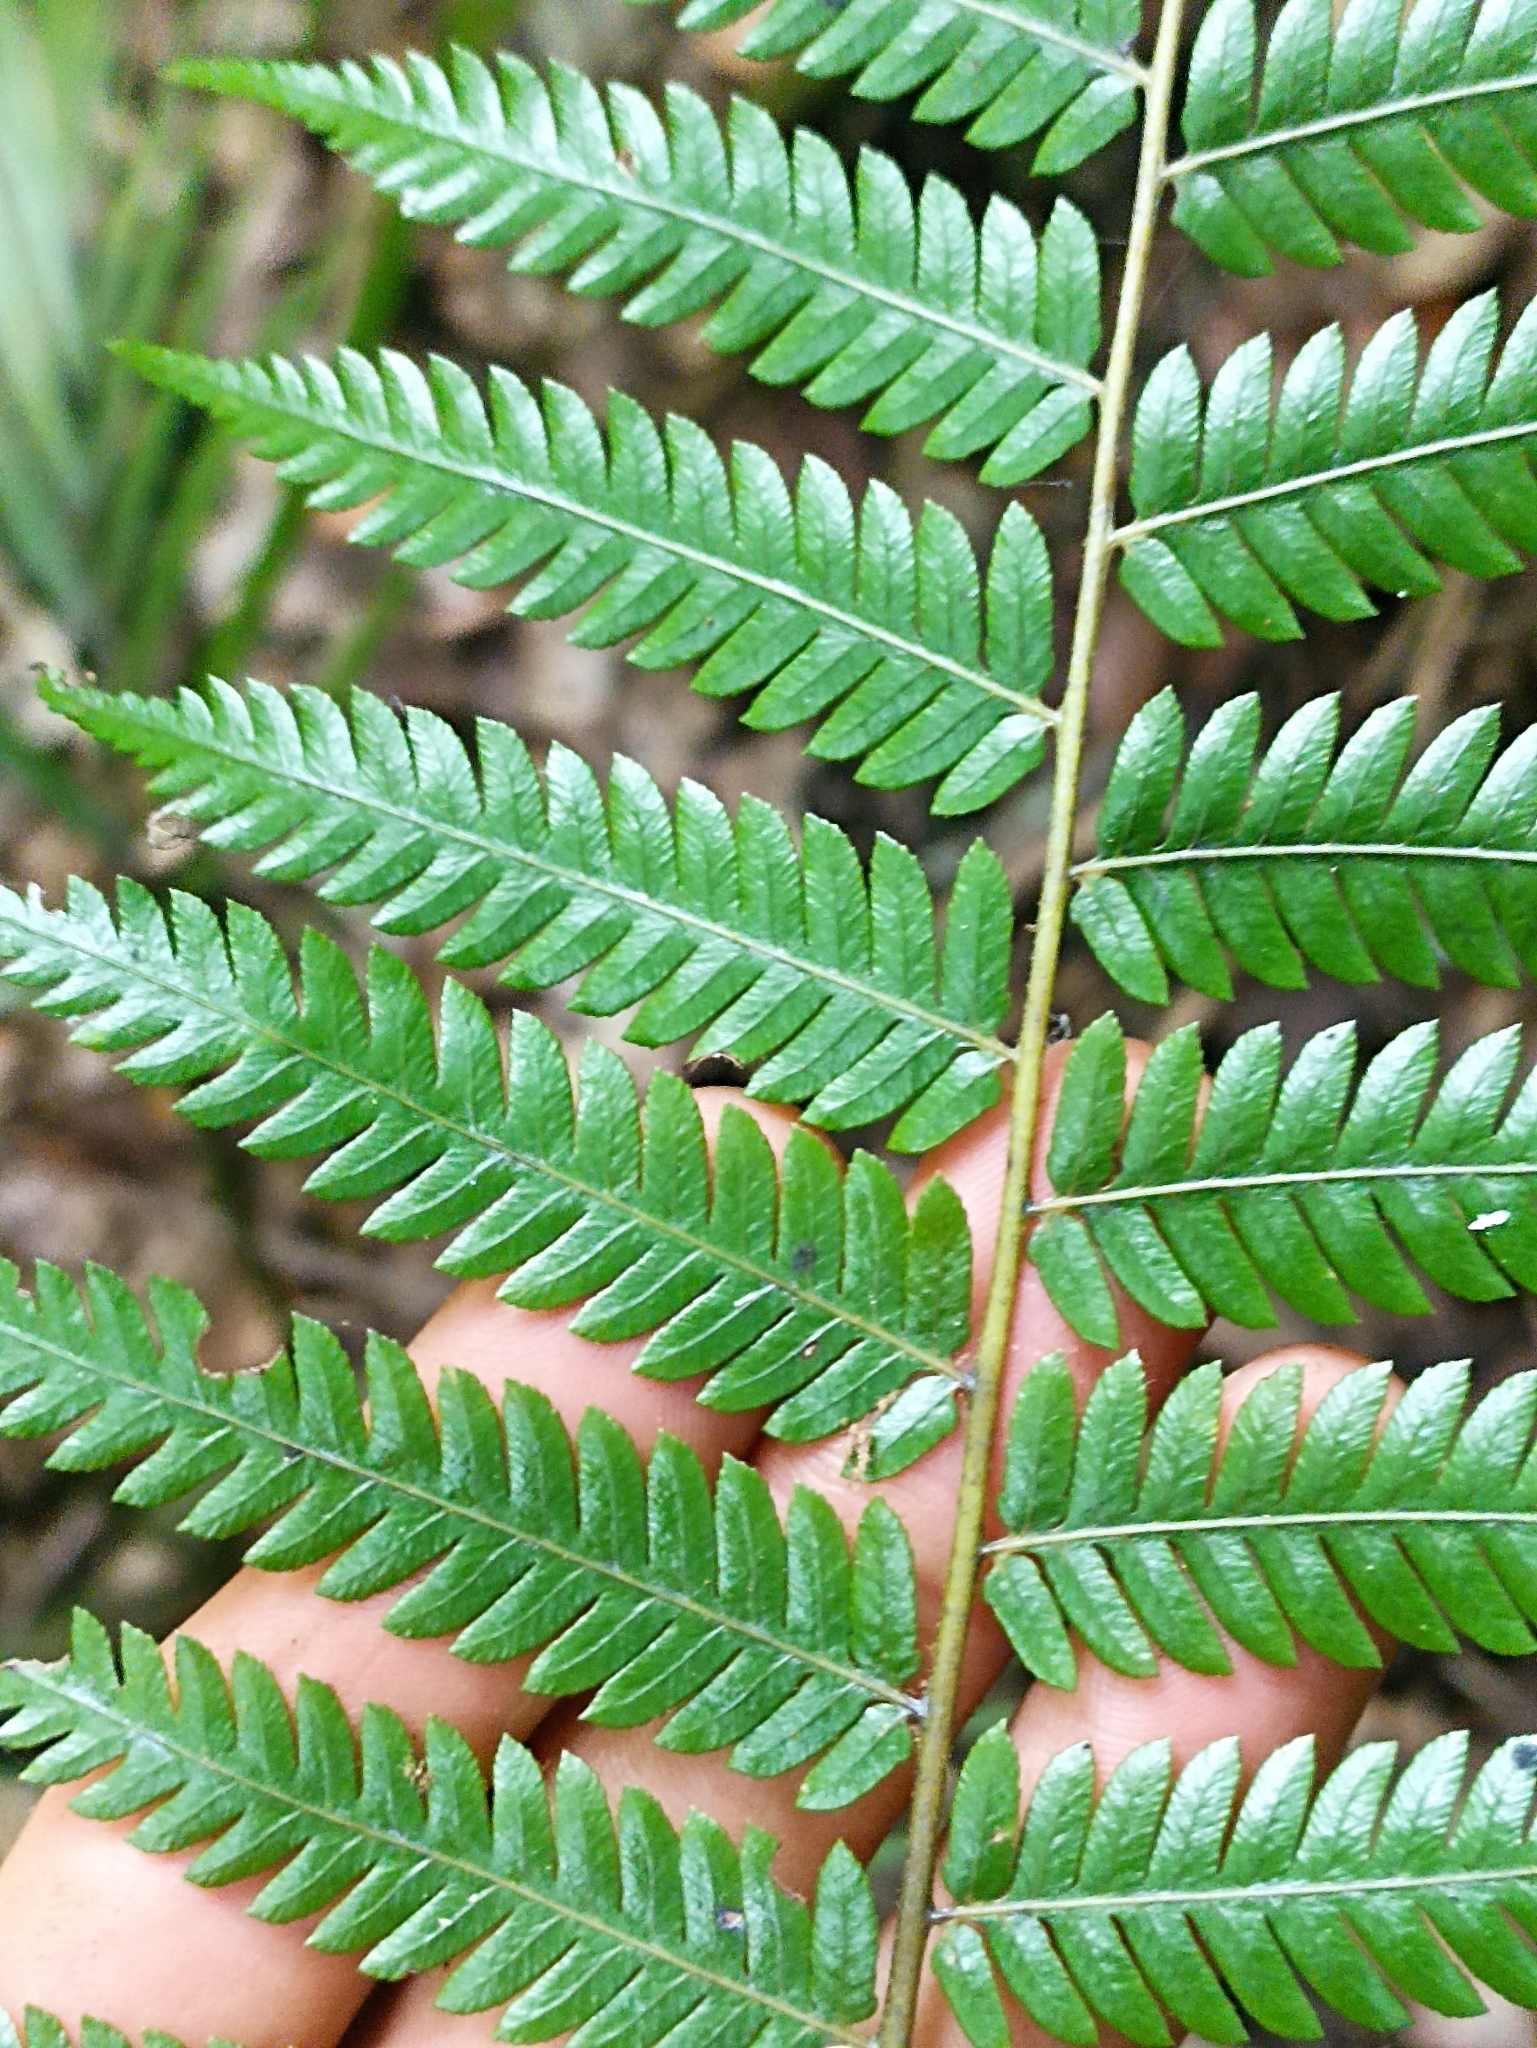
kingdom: Plantae
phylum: Tracheophyta
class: Polypodiopsida
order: Cyatheales
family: Cyatheaceae
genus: Alsophila
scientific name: Alsophila dealbata
